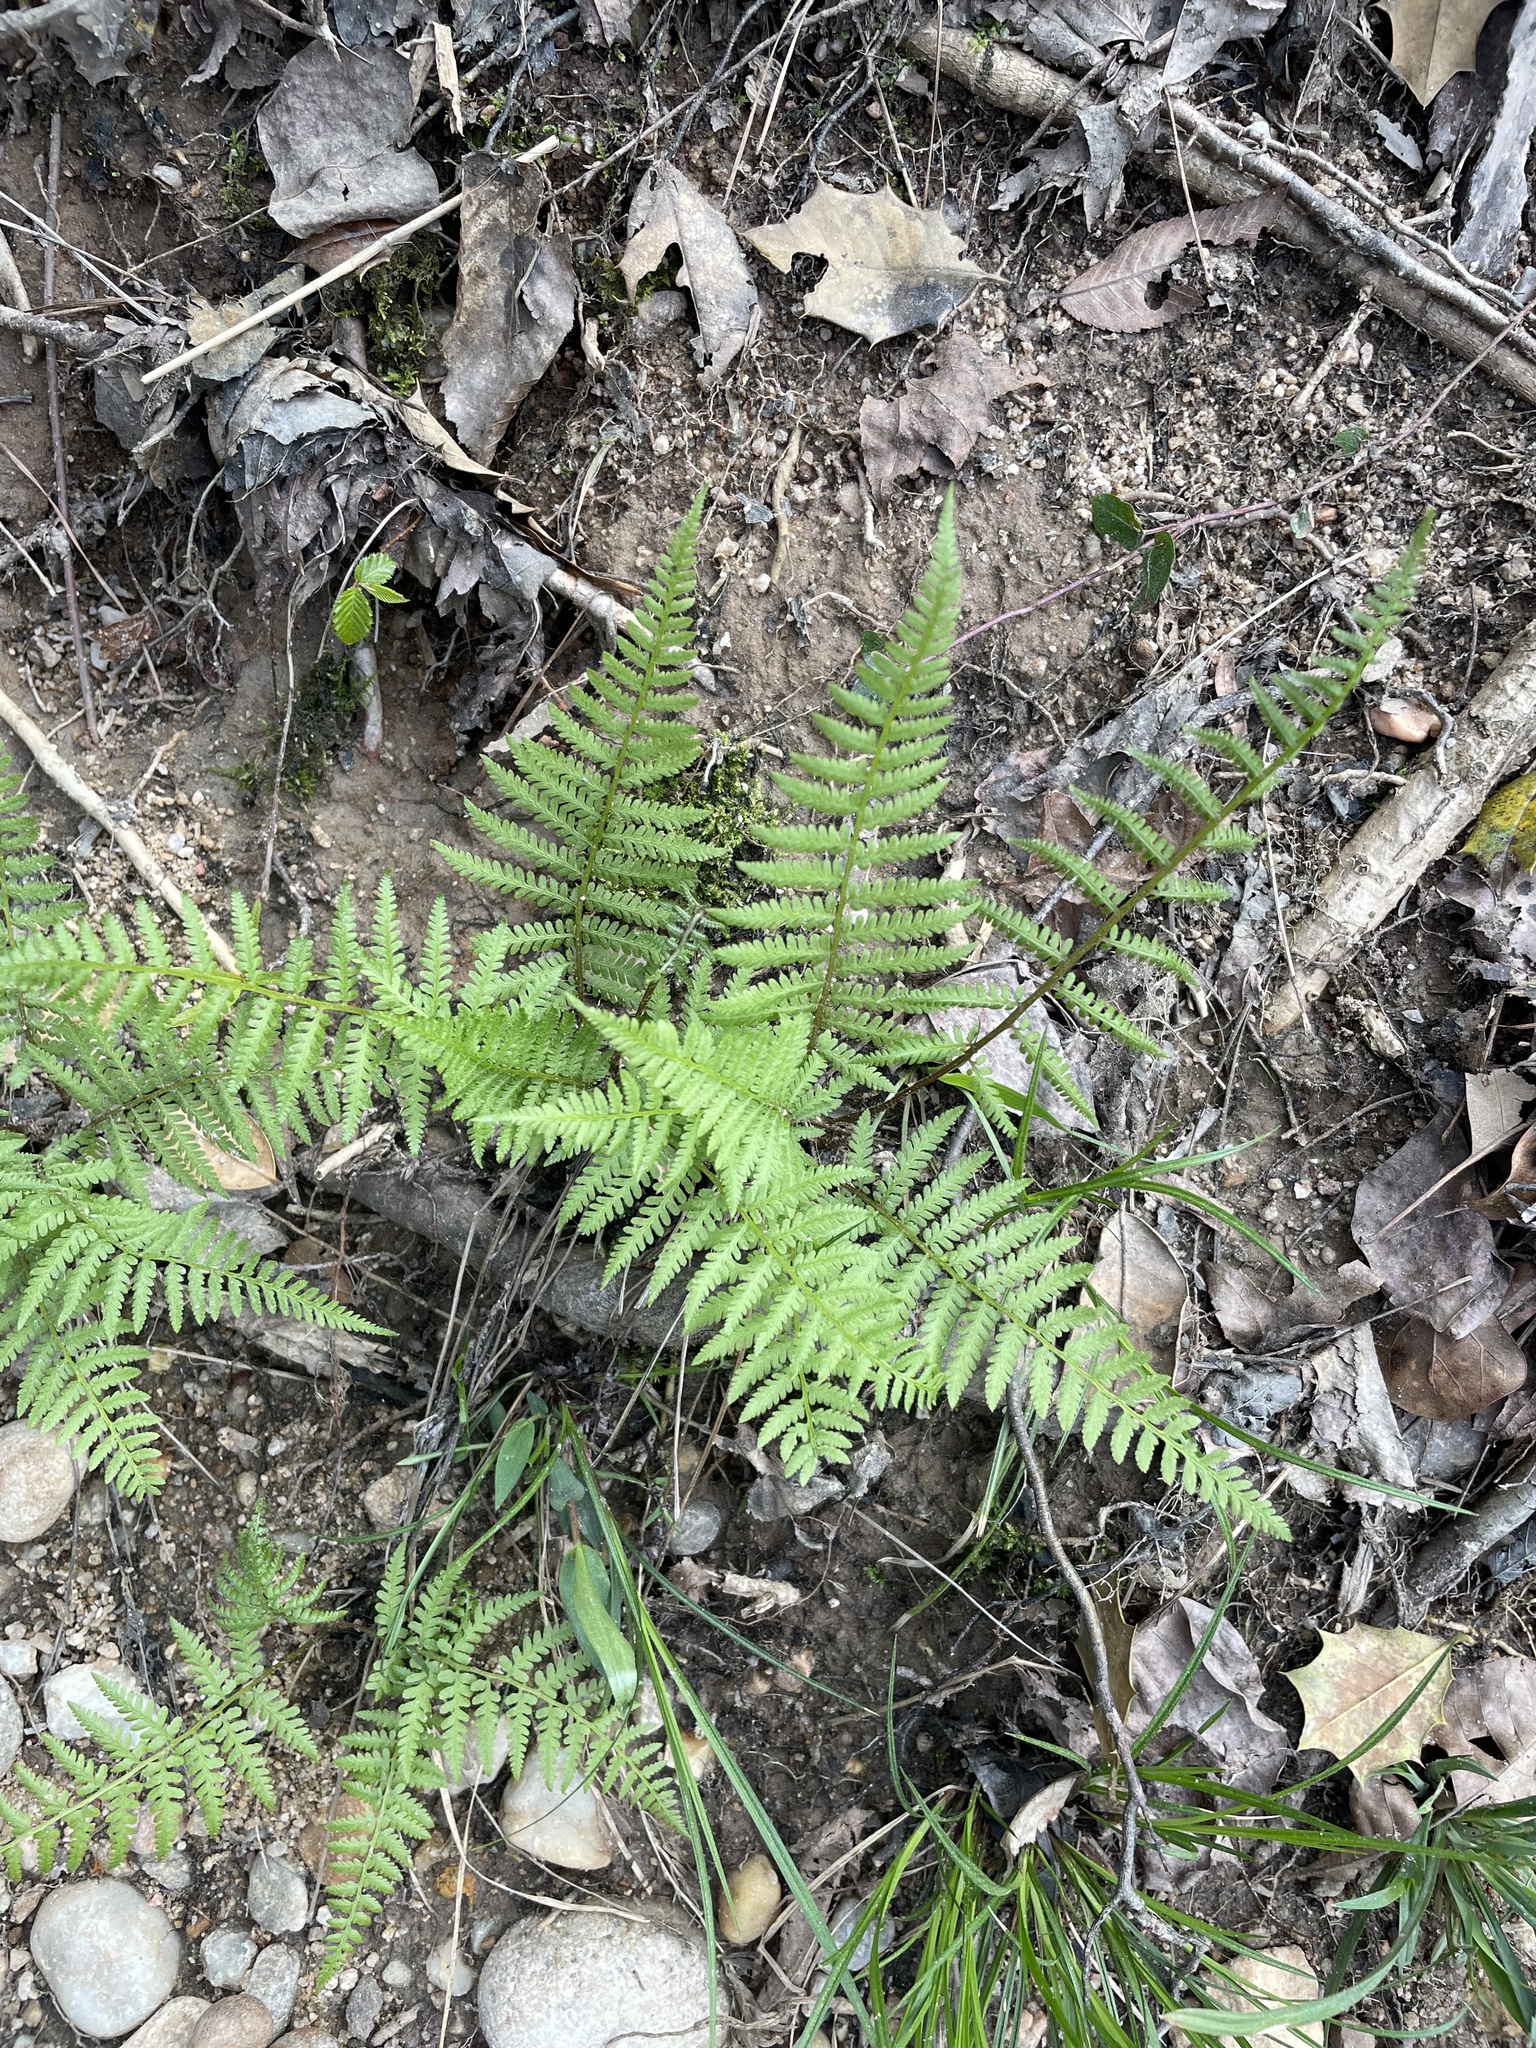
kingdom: Plantae
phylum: Tracheophyta
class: Polypodiopsida
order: Polypodiales
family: Athyriaceae
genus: Athyrium
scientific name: Athyrium asplenioides
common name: Southern lady fern
